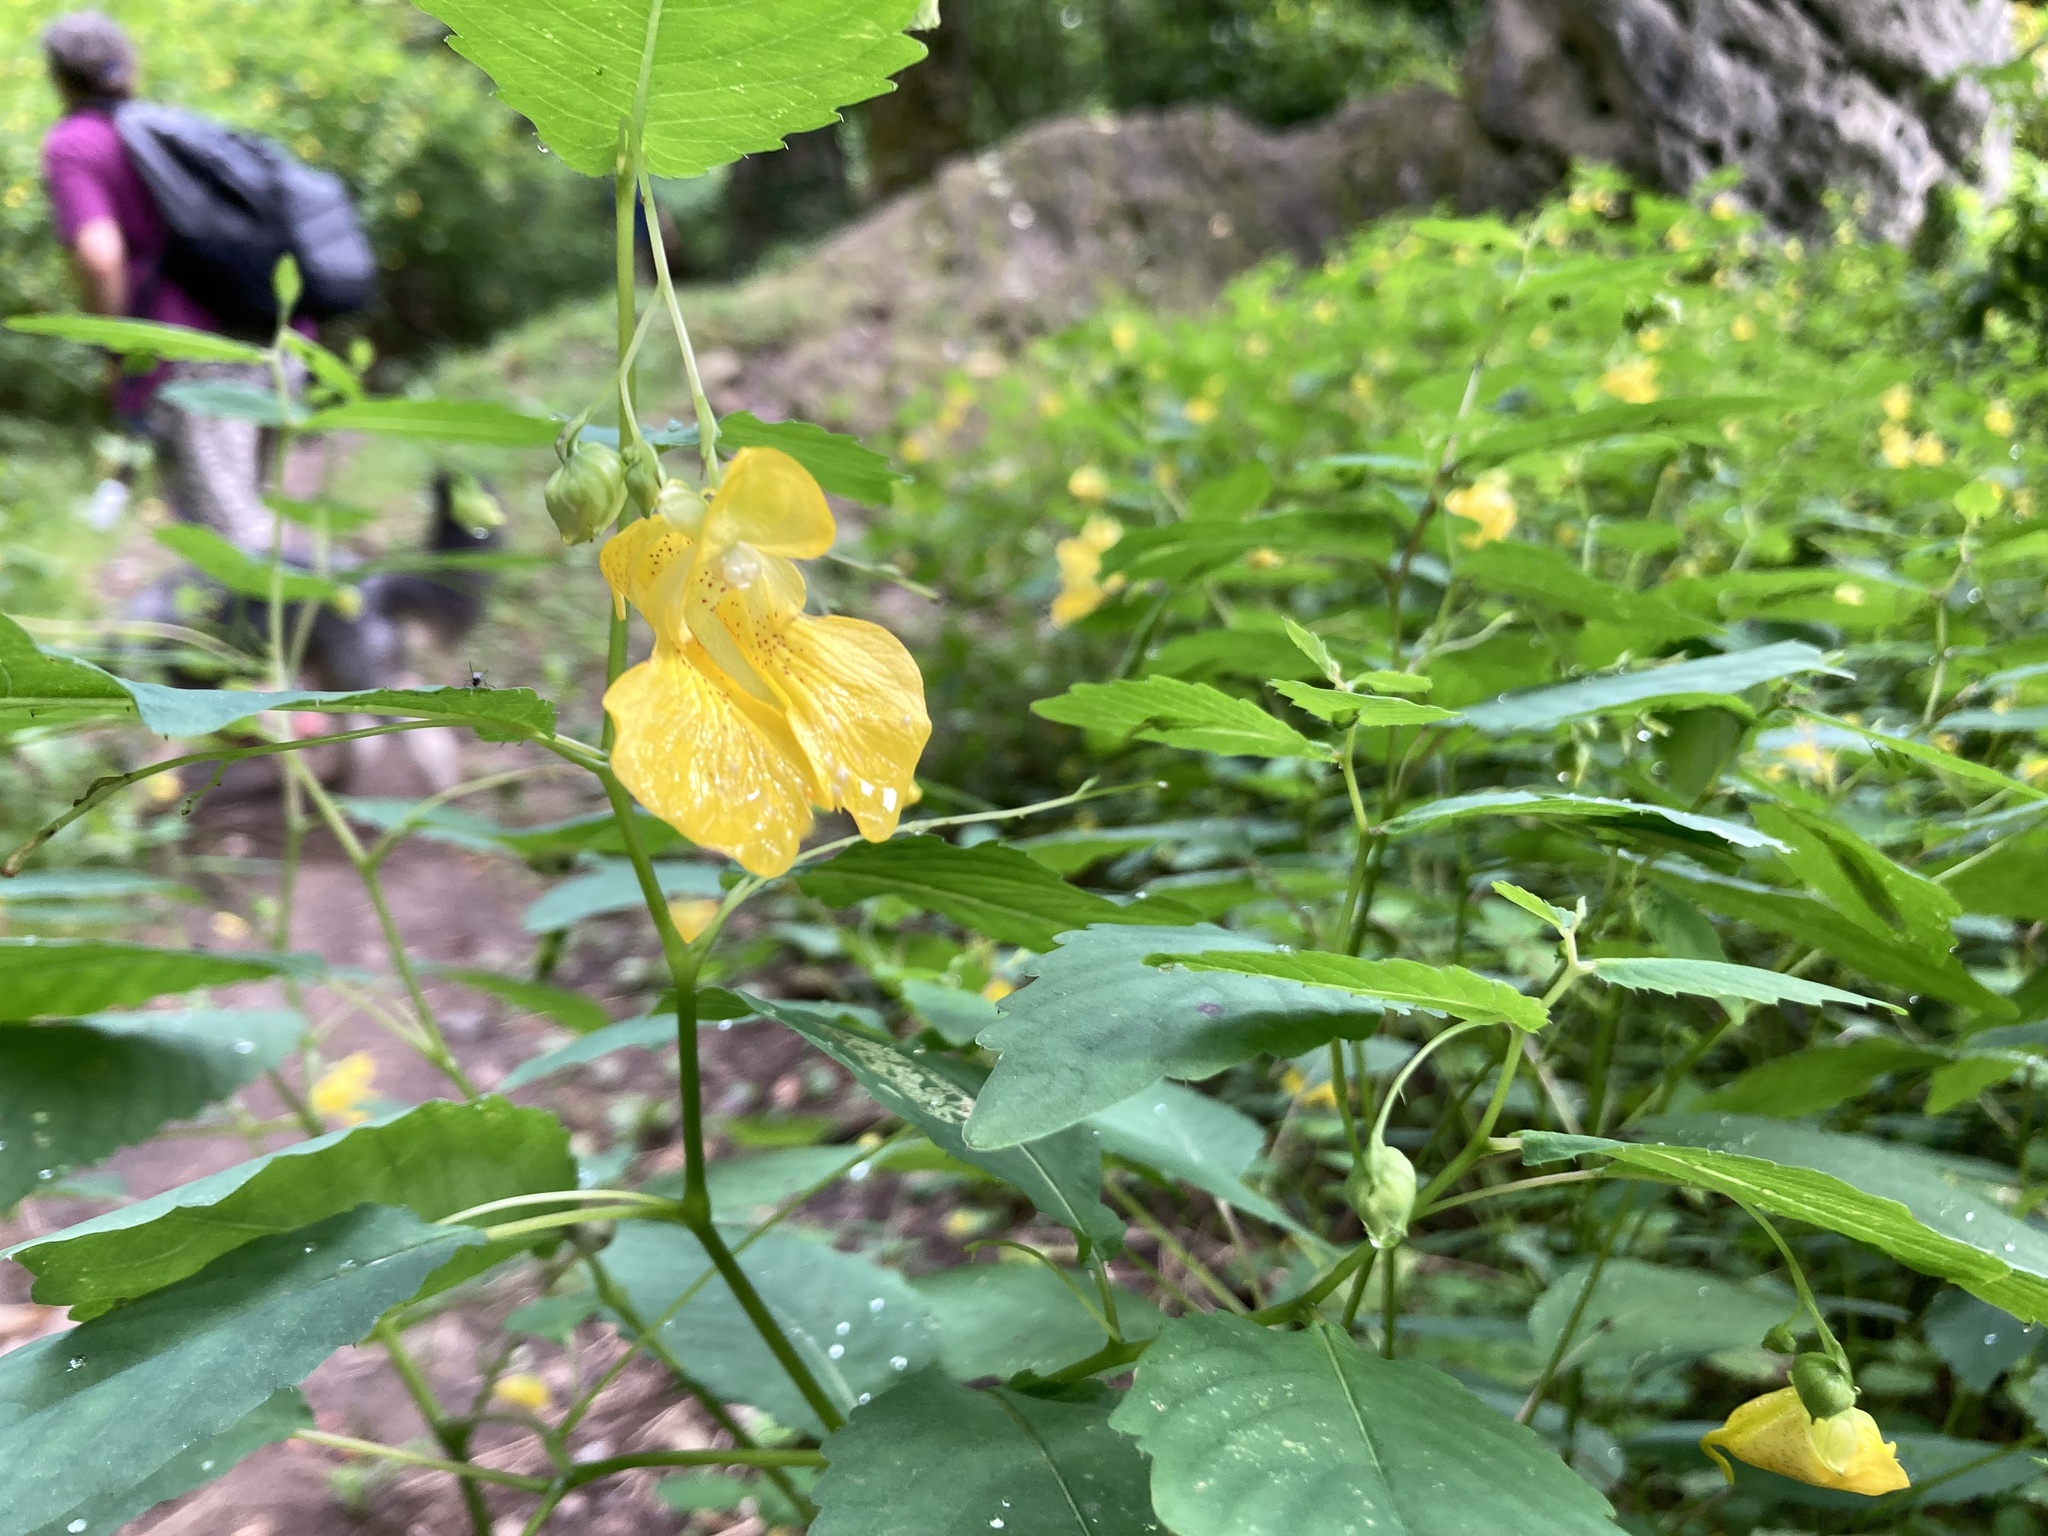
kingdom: Plantae
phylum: Tracheophyta
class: Magnoliopsida
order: Ericales
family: Balsaminaceae
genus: Impatiens
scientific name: Impatiens pallida
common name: Pale snapweed
